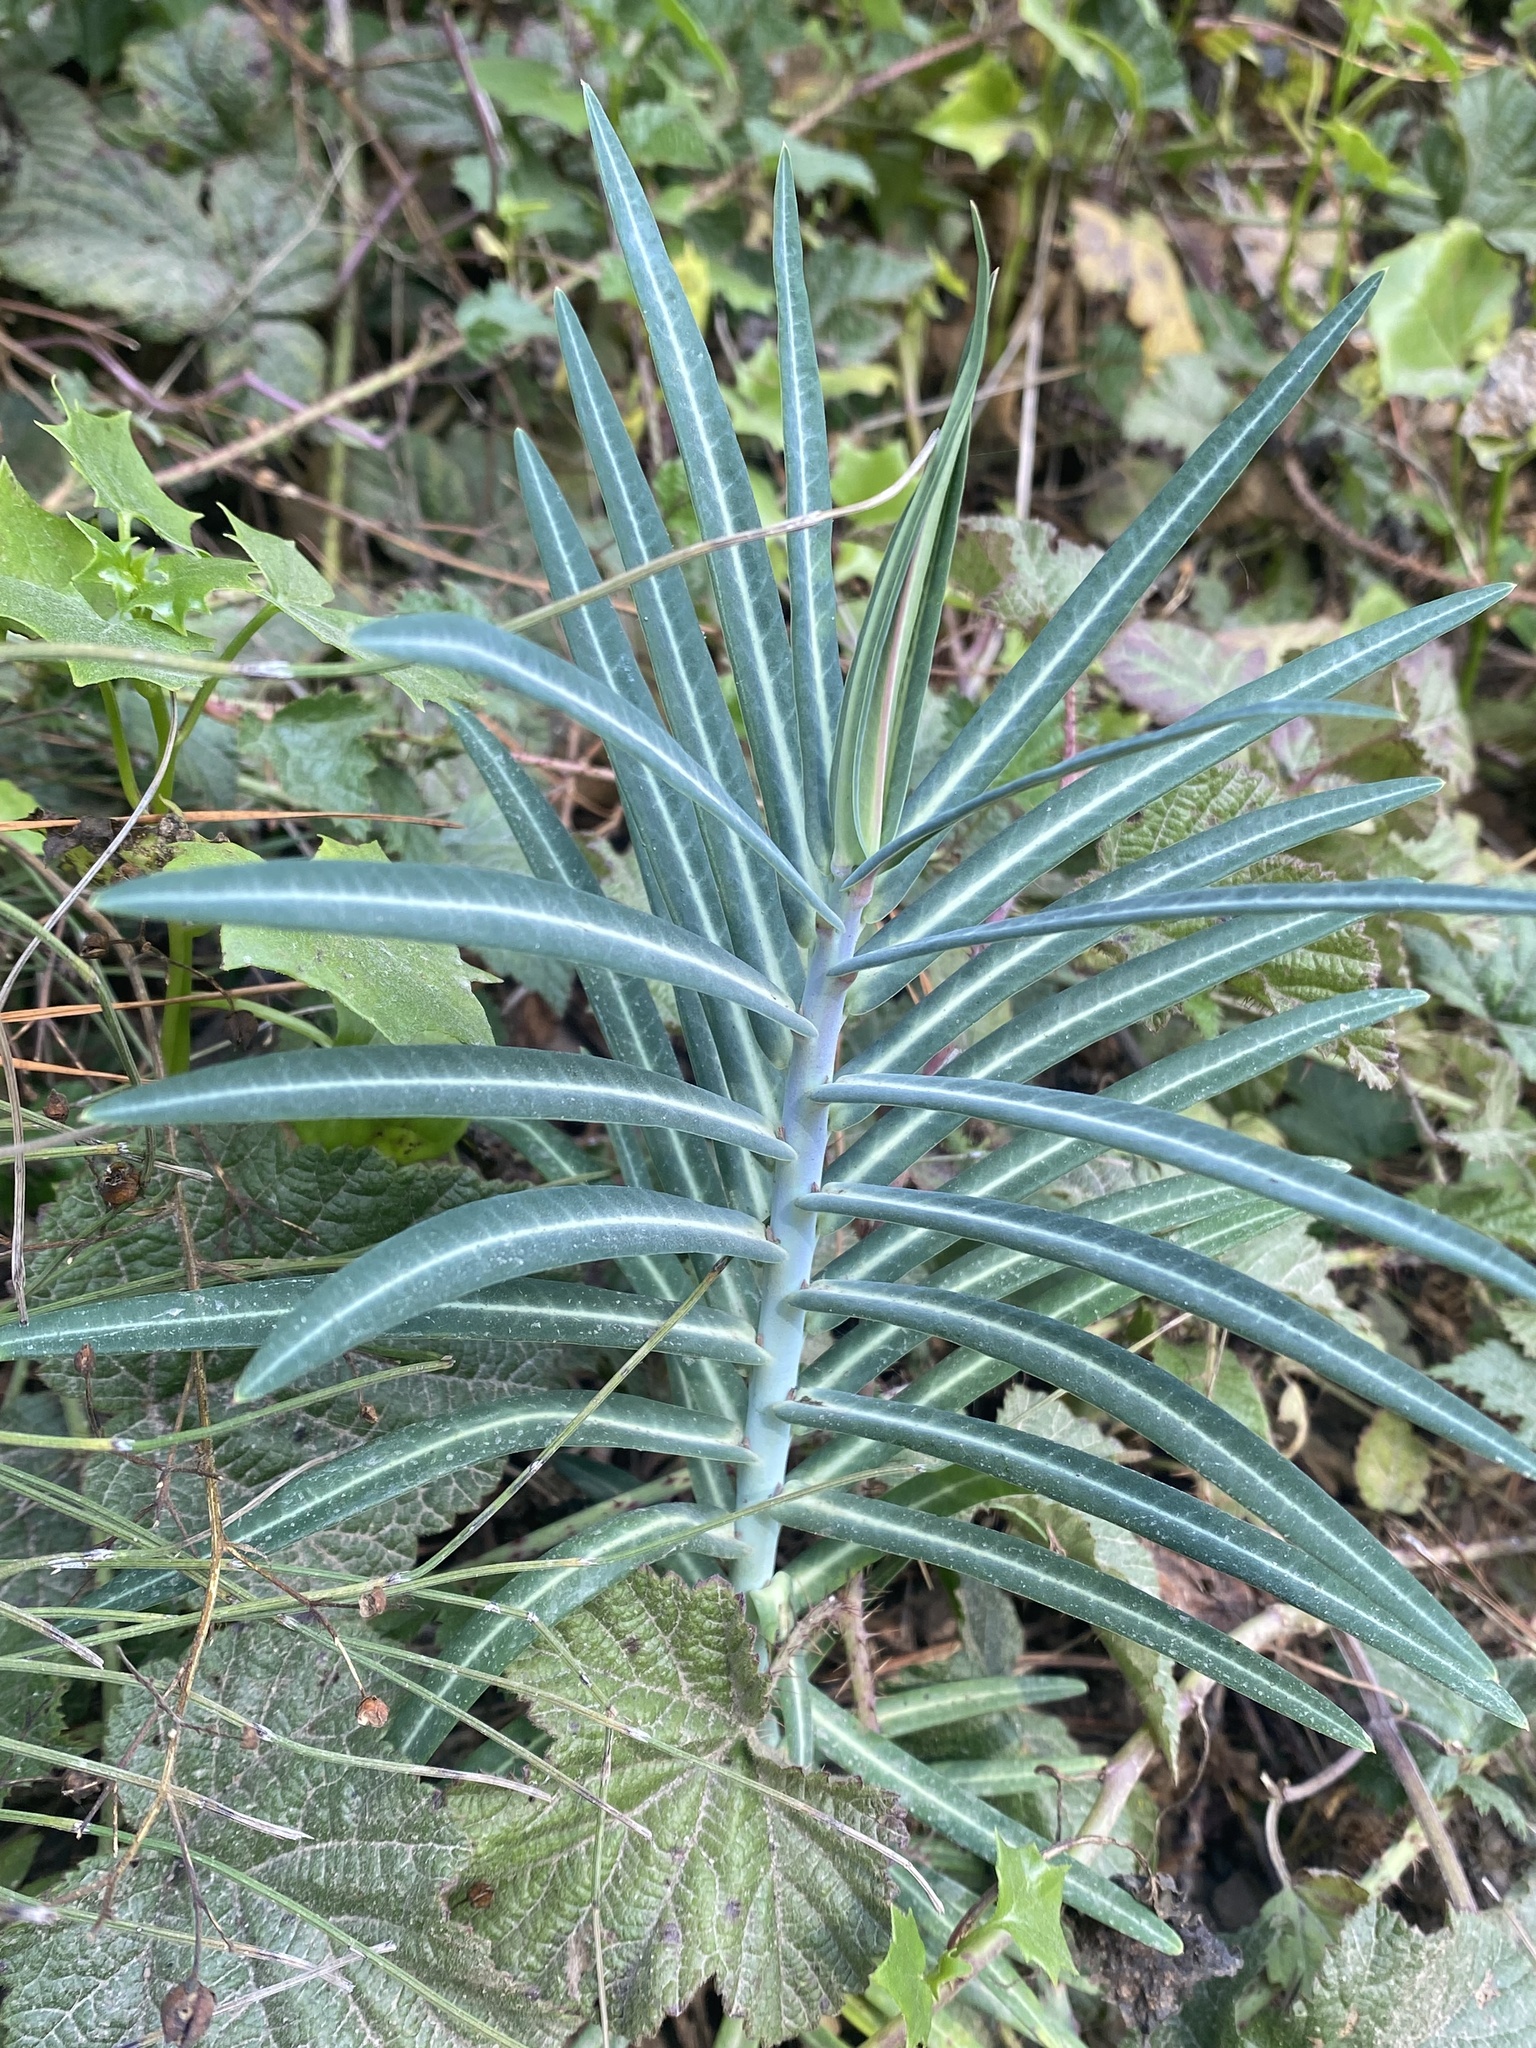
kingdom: Plantae
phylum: Tracheophyta
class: Magnoliopsida
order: Malpighiales
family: Euphorbiaceae
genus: Euphorbia
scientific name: Euphorbia lathyris
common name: Caper spurge
